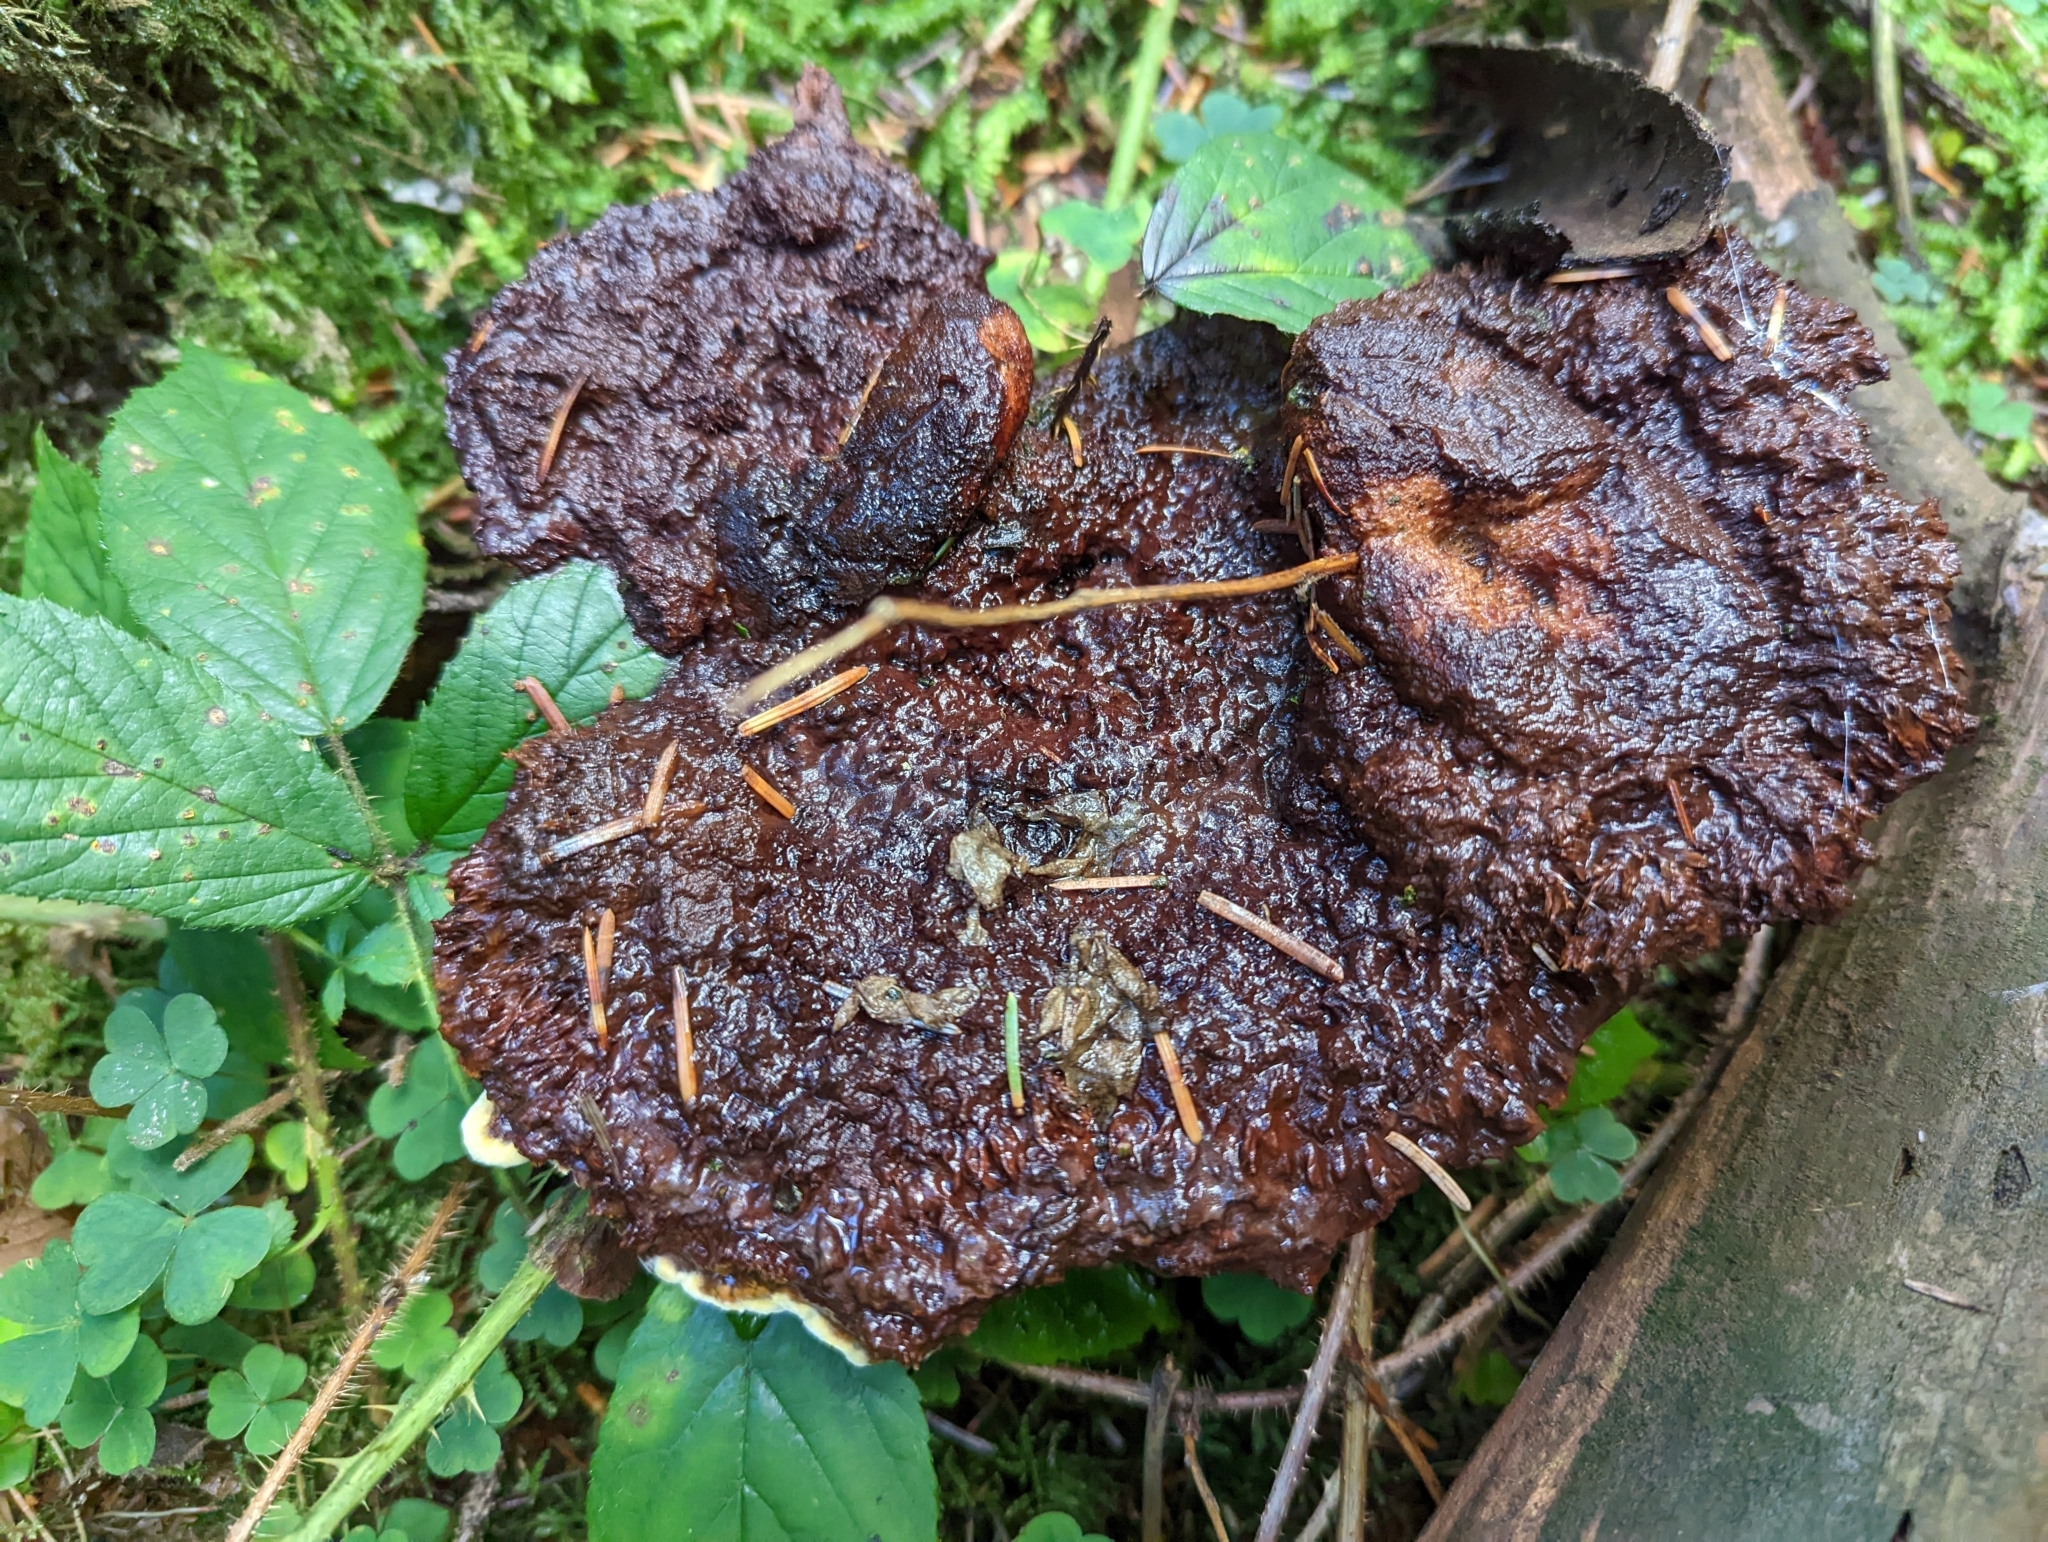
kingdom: Fungi
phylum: Basidiomycota
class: Agaricomycetes
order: Polyporales
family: Laetiporaceae
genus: Phaeolus
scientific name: Phaeolus schweinitzii
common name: Dyer's mazegill
